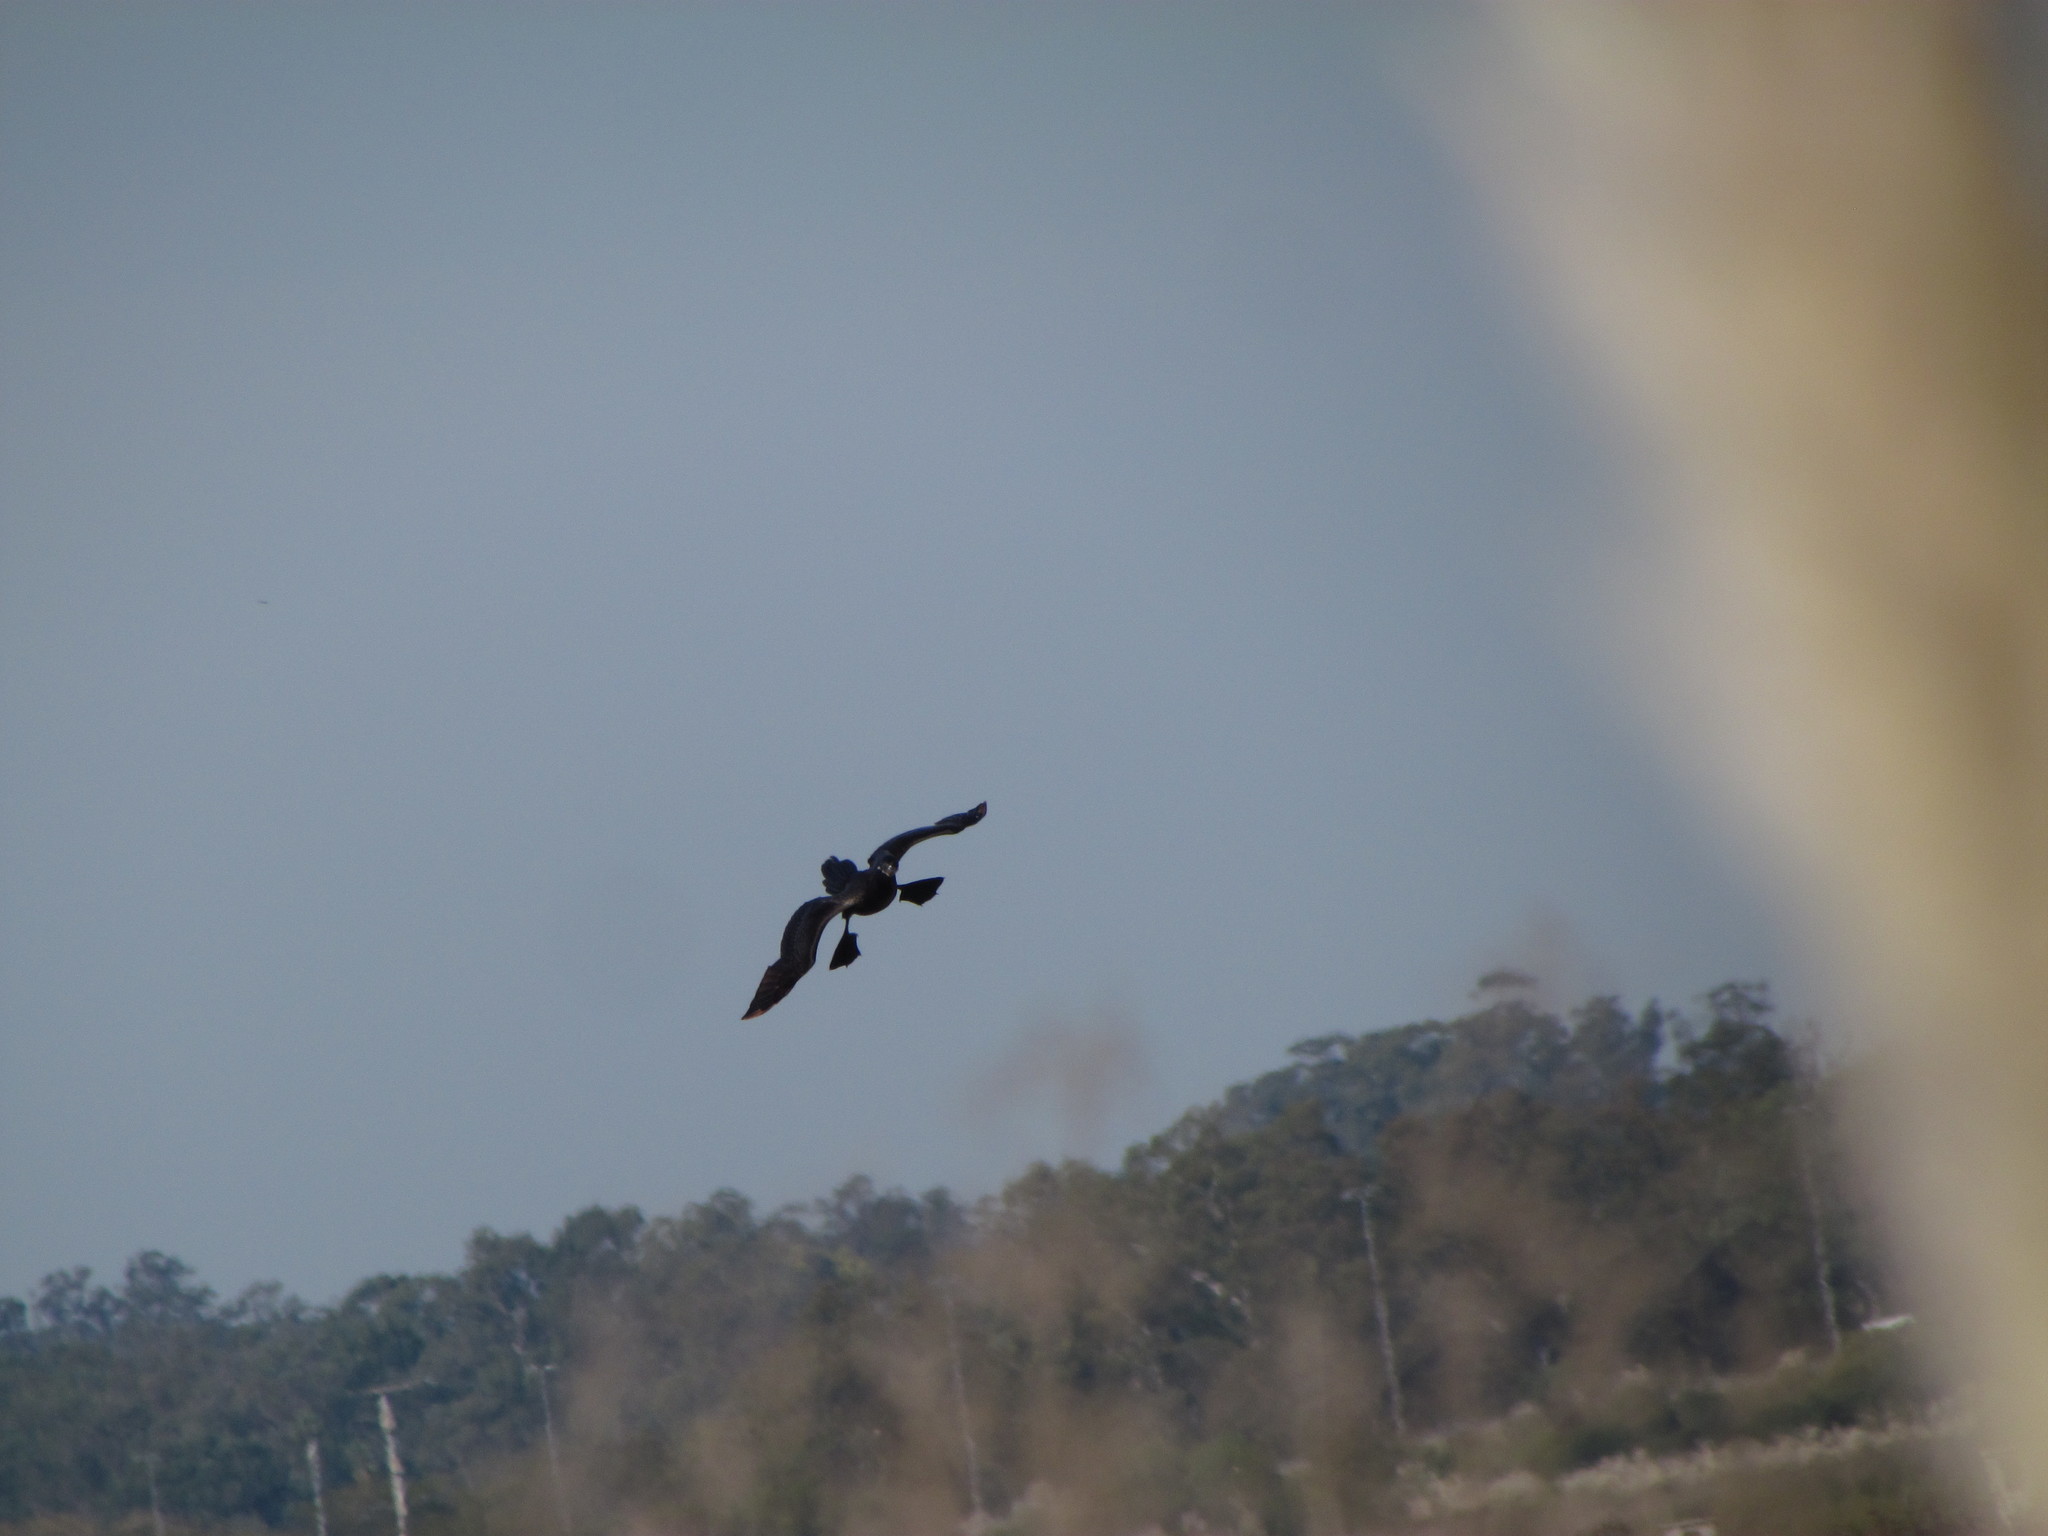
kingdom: Animalia
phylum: Chordata
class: Aves
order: Suliformes
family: Phalacrocoracidae
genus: Phalacrocorax
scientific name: Phalacrocorax brasilianus
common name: Neotropic cormorant
